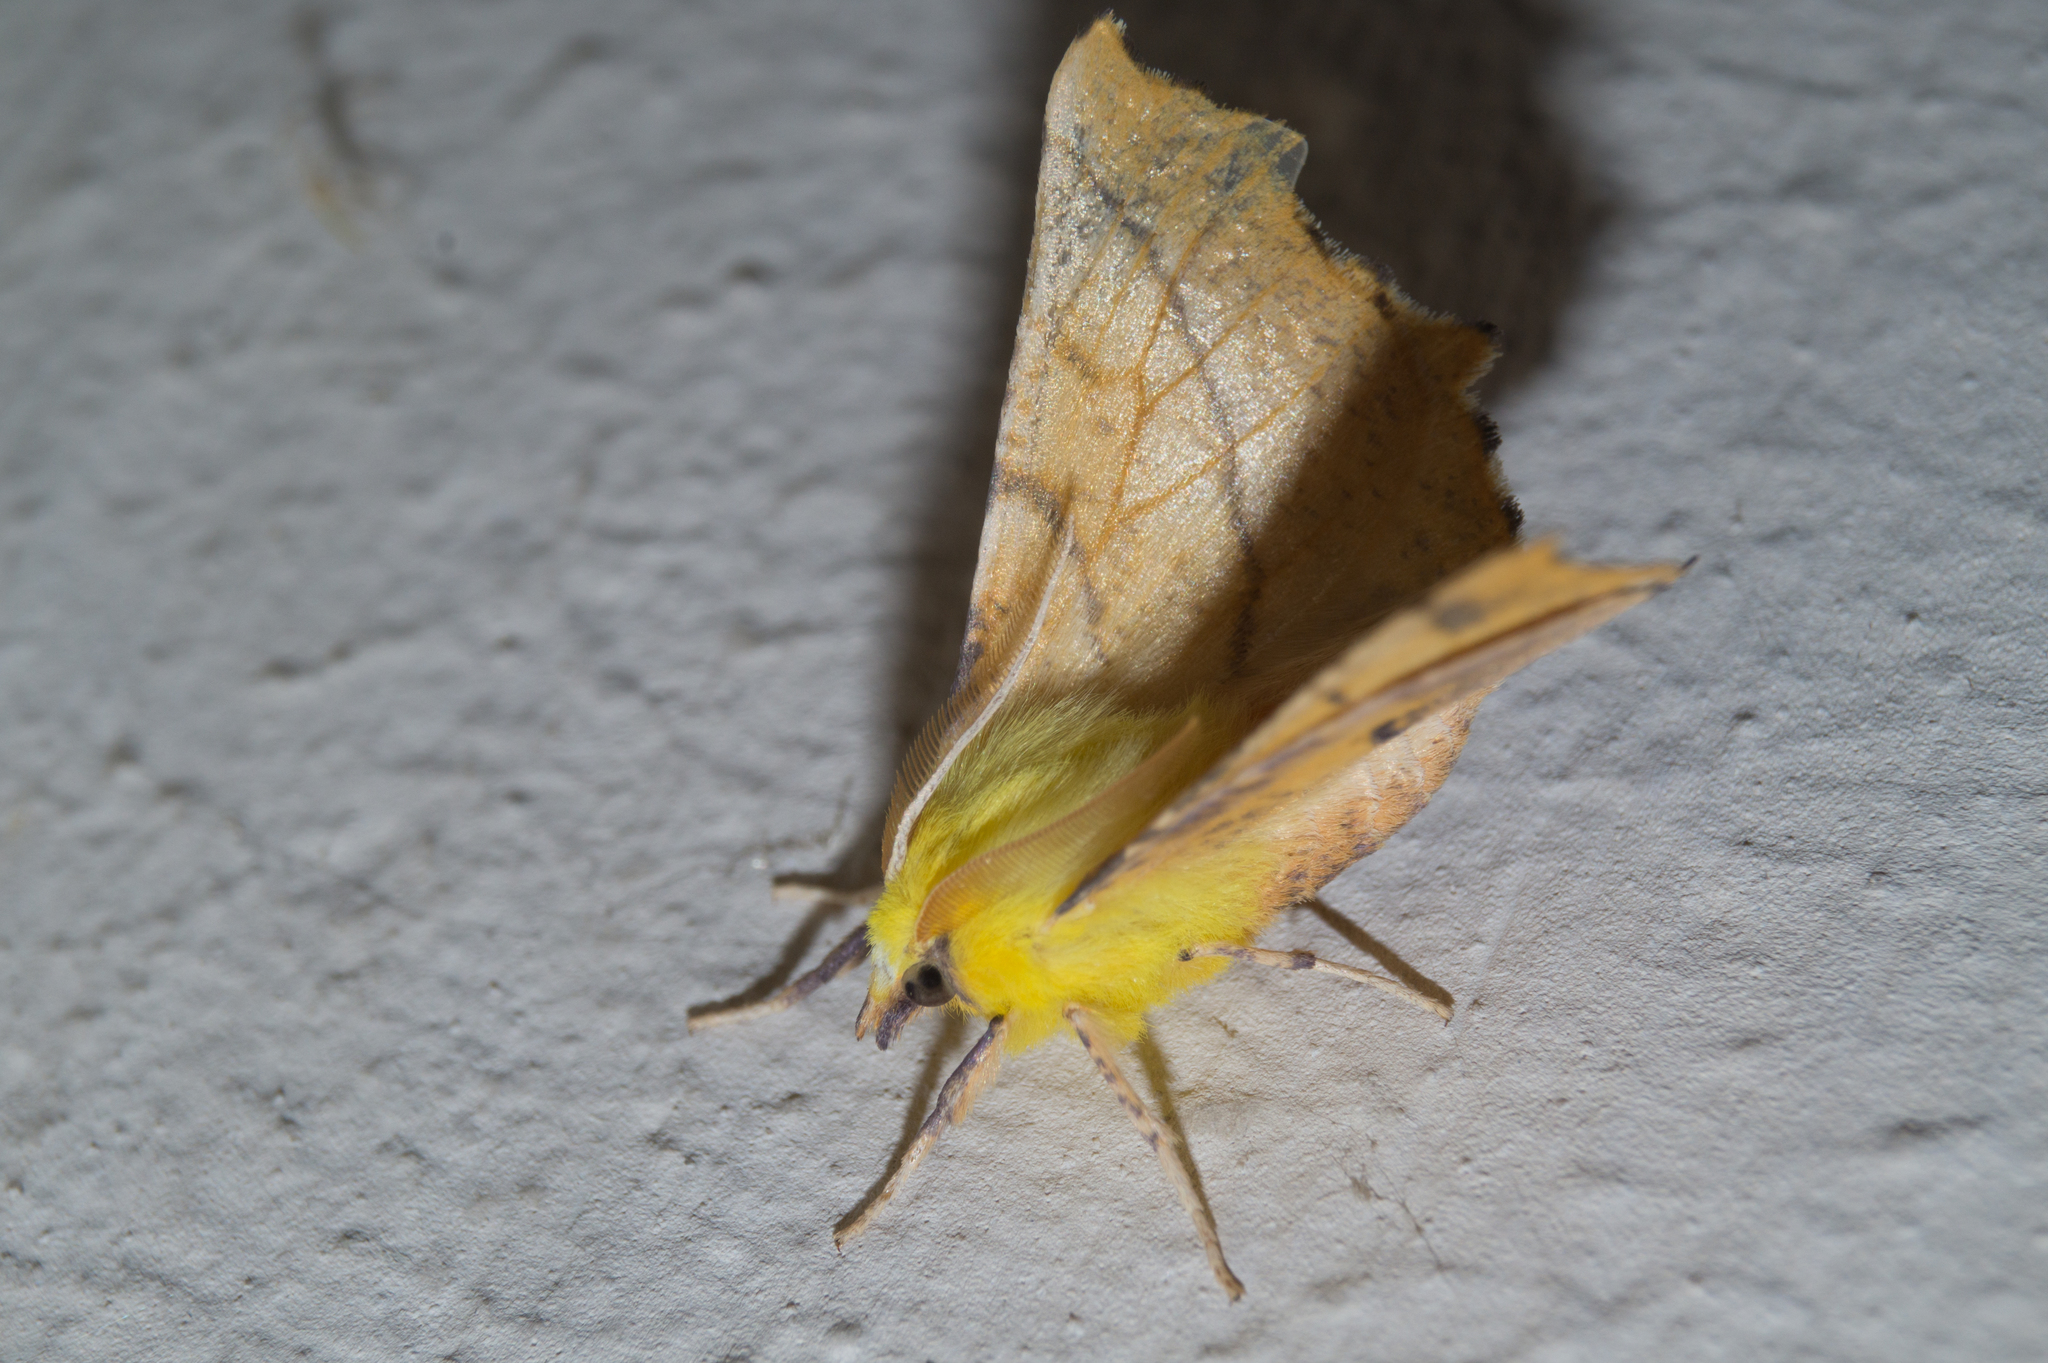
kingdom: Animalia
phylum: Arthropoda
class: Insecta
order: Lepidoptera
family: Geometridae
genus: Ennomos
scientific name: Ennomos alniaria
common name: Canary-shouldered thorn
